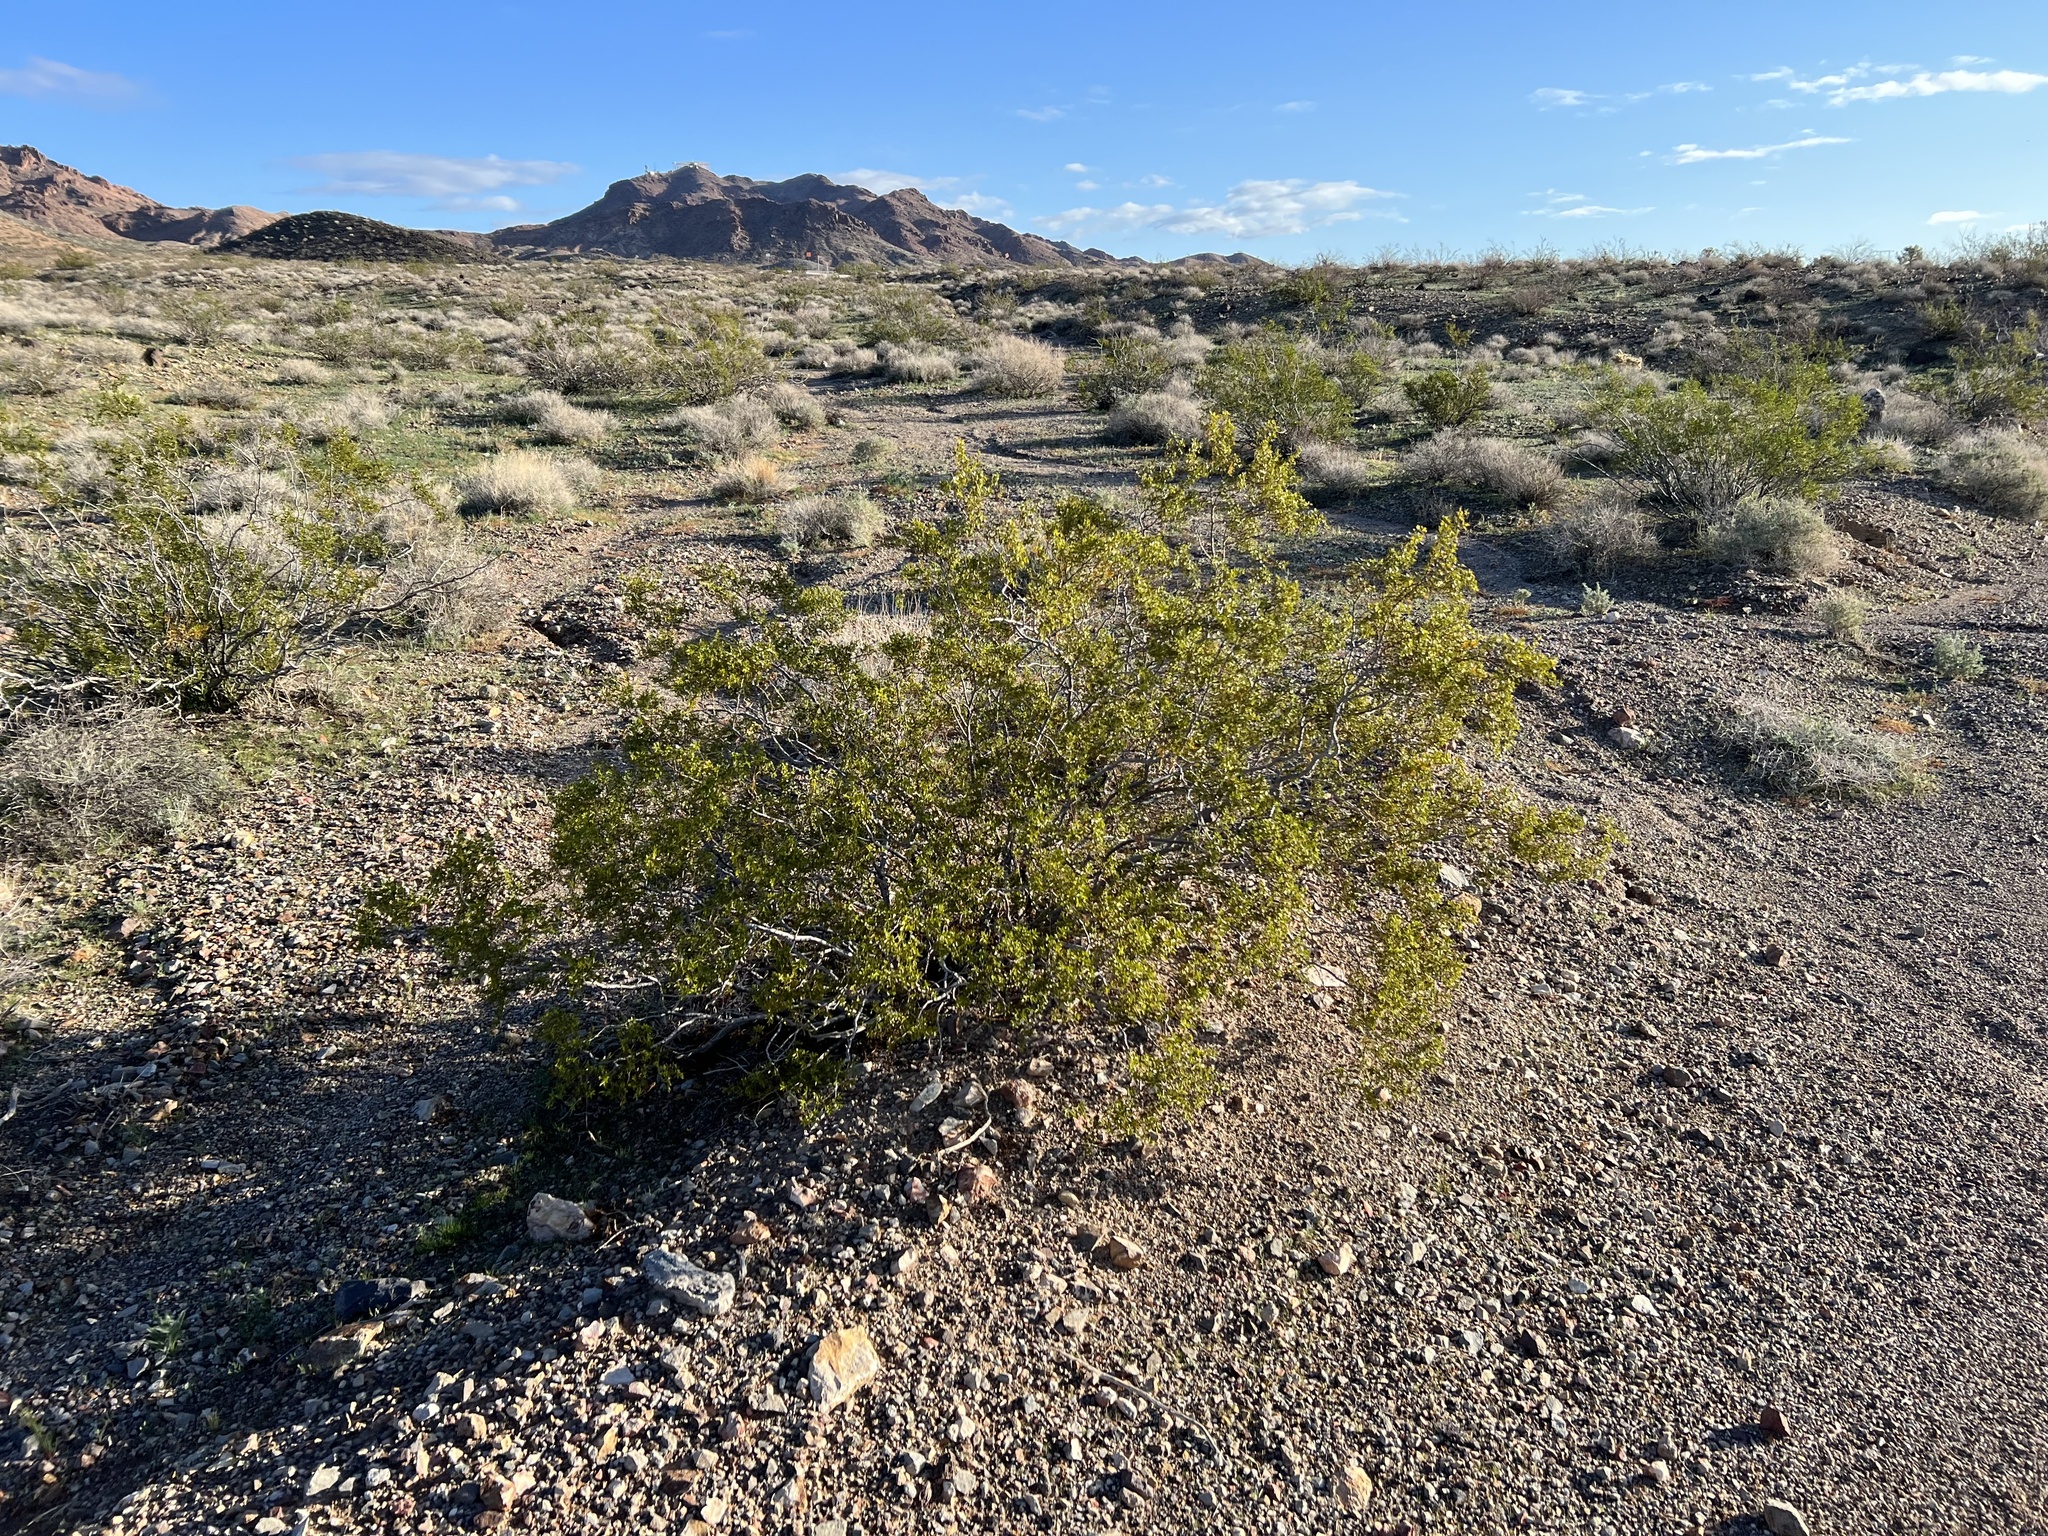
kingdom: Plantae
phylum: Tracheophyta
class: Magnoliopsida
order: Zygophyllales
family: Zygophyllaceae
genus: Larrea
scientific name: Larrea tridentata
